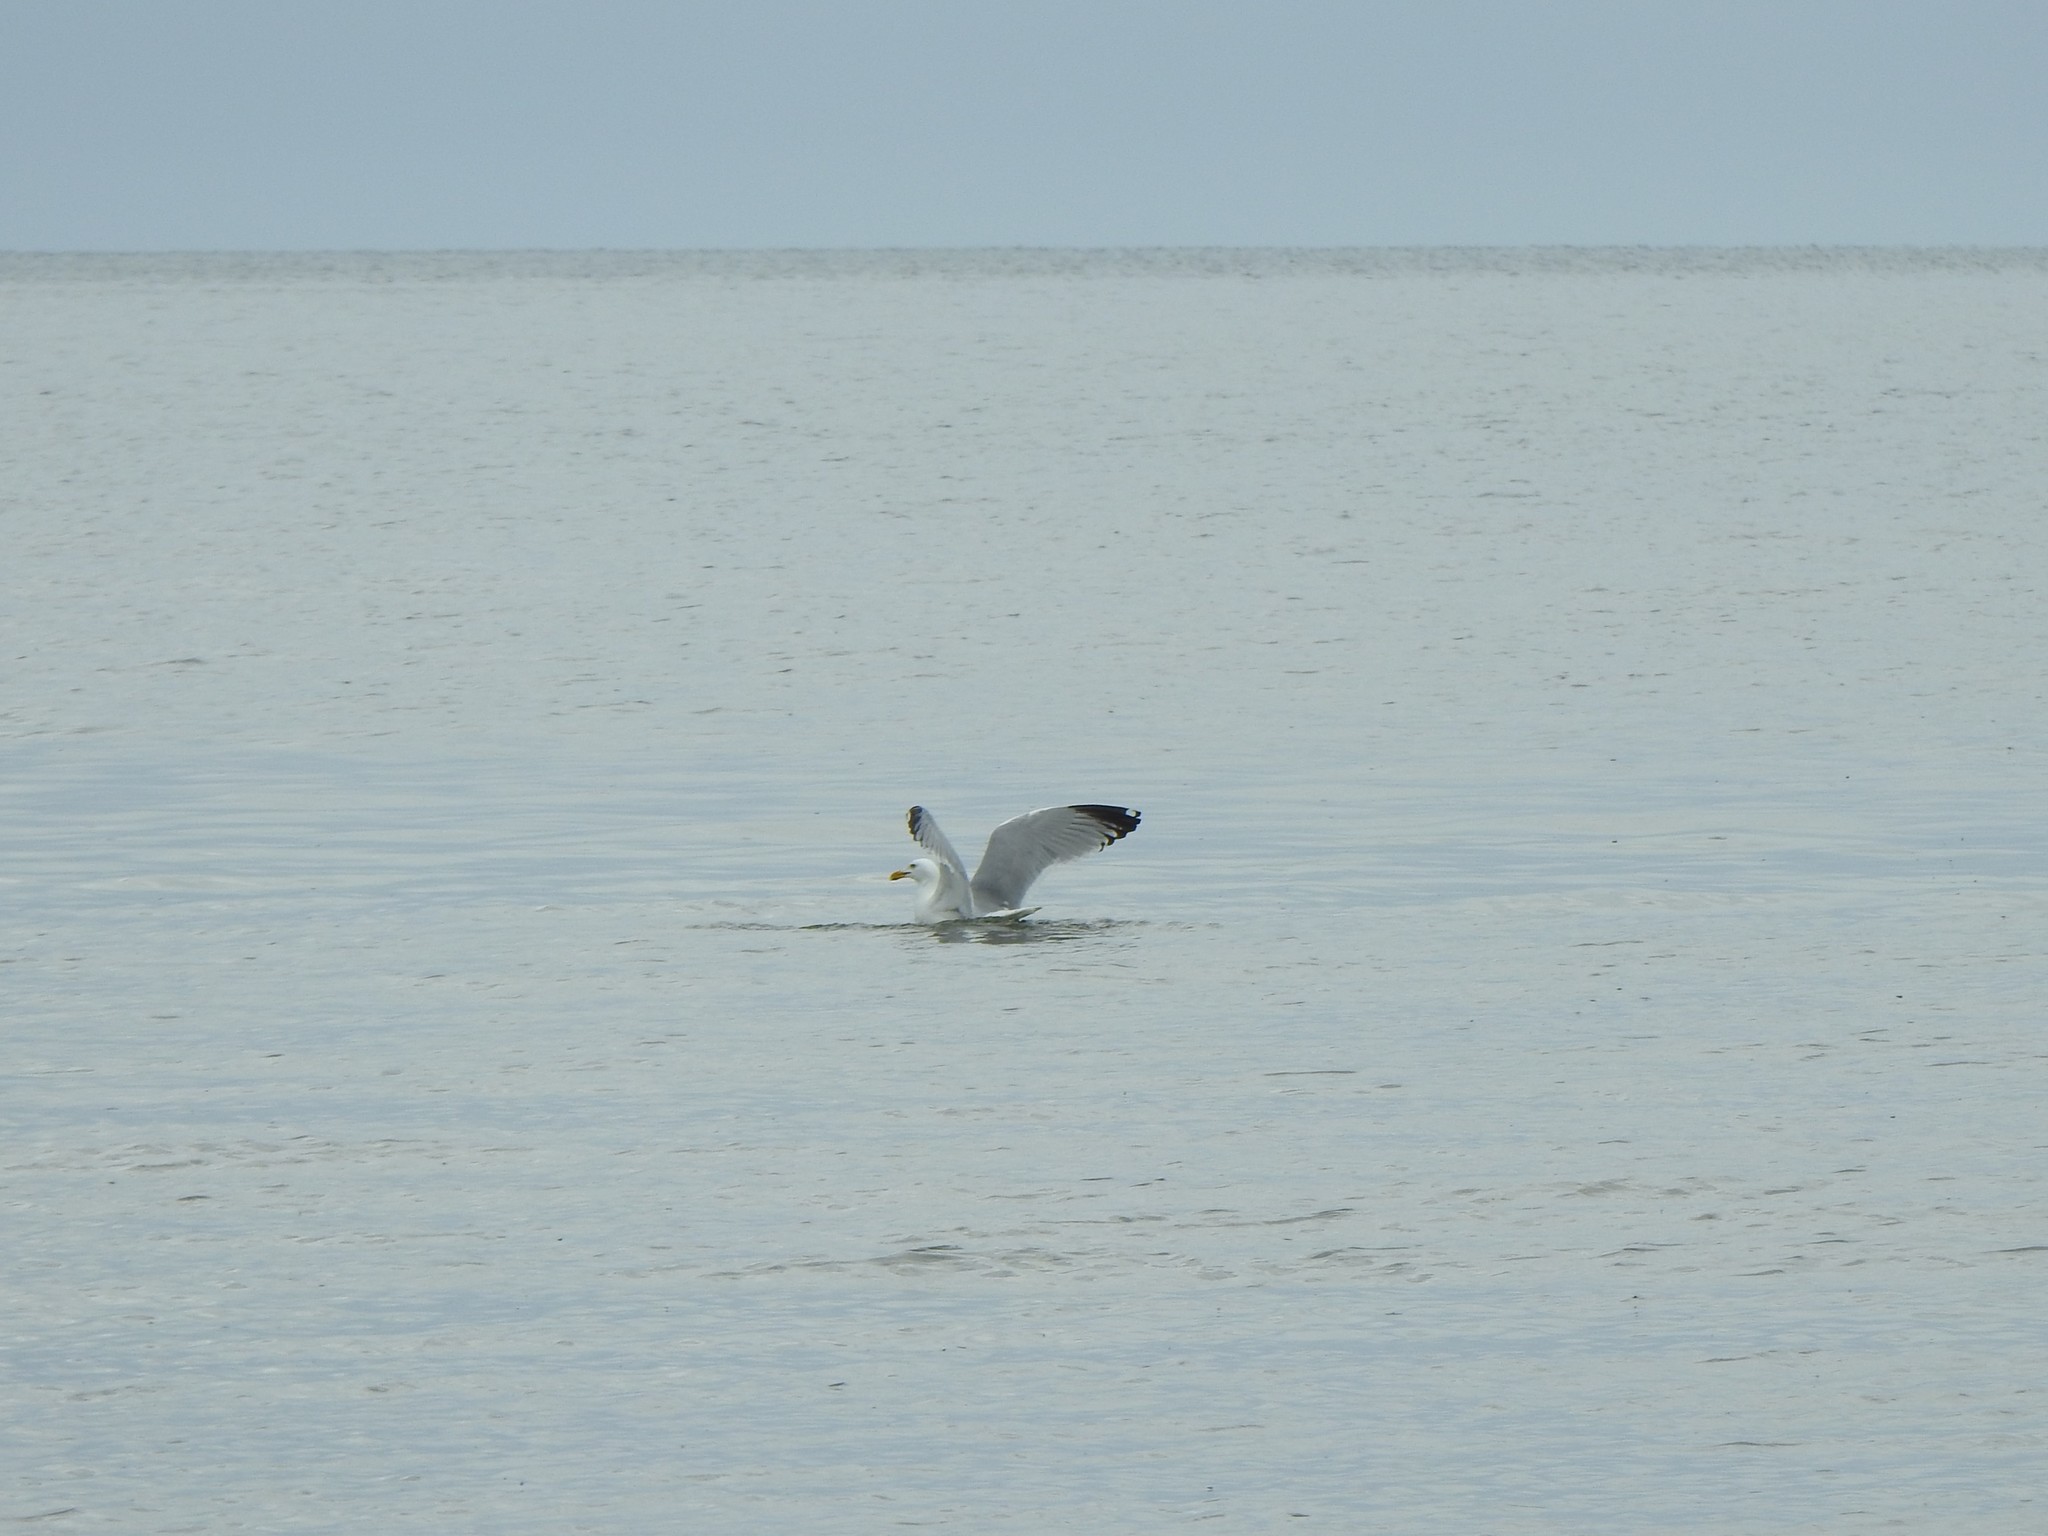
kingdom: Animalia
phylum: Chordata
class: Aves
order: Charadriiformes
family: Laridae
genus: Larus
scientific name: Larus argentatus
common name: Herring gull
